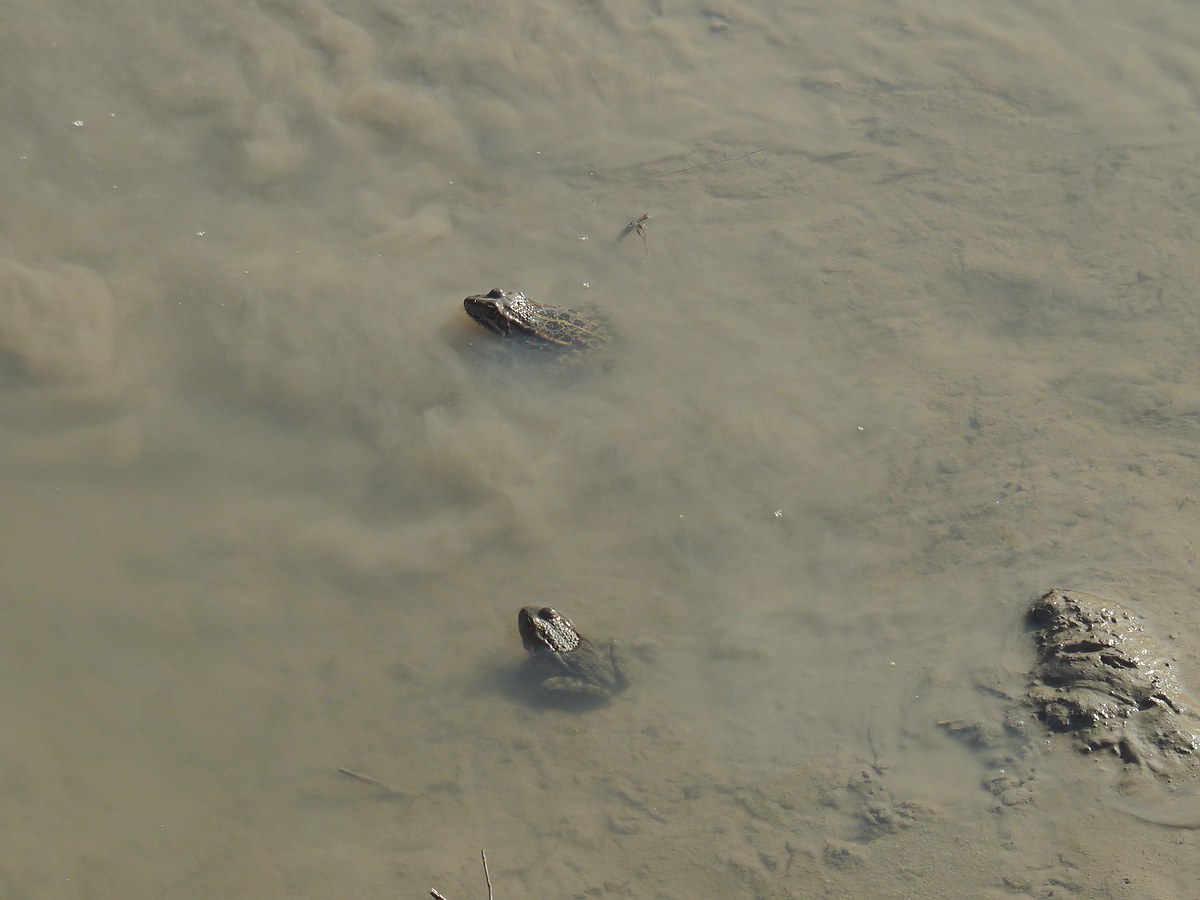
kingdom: Animalia
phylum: Chordata
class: Amphibia
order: Anura
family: Ranidae
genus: Pelophylax
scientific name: Pelophylax
